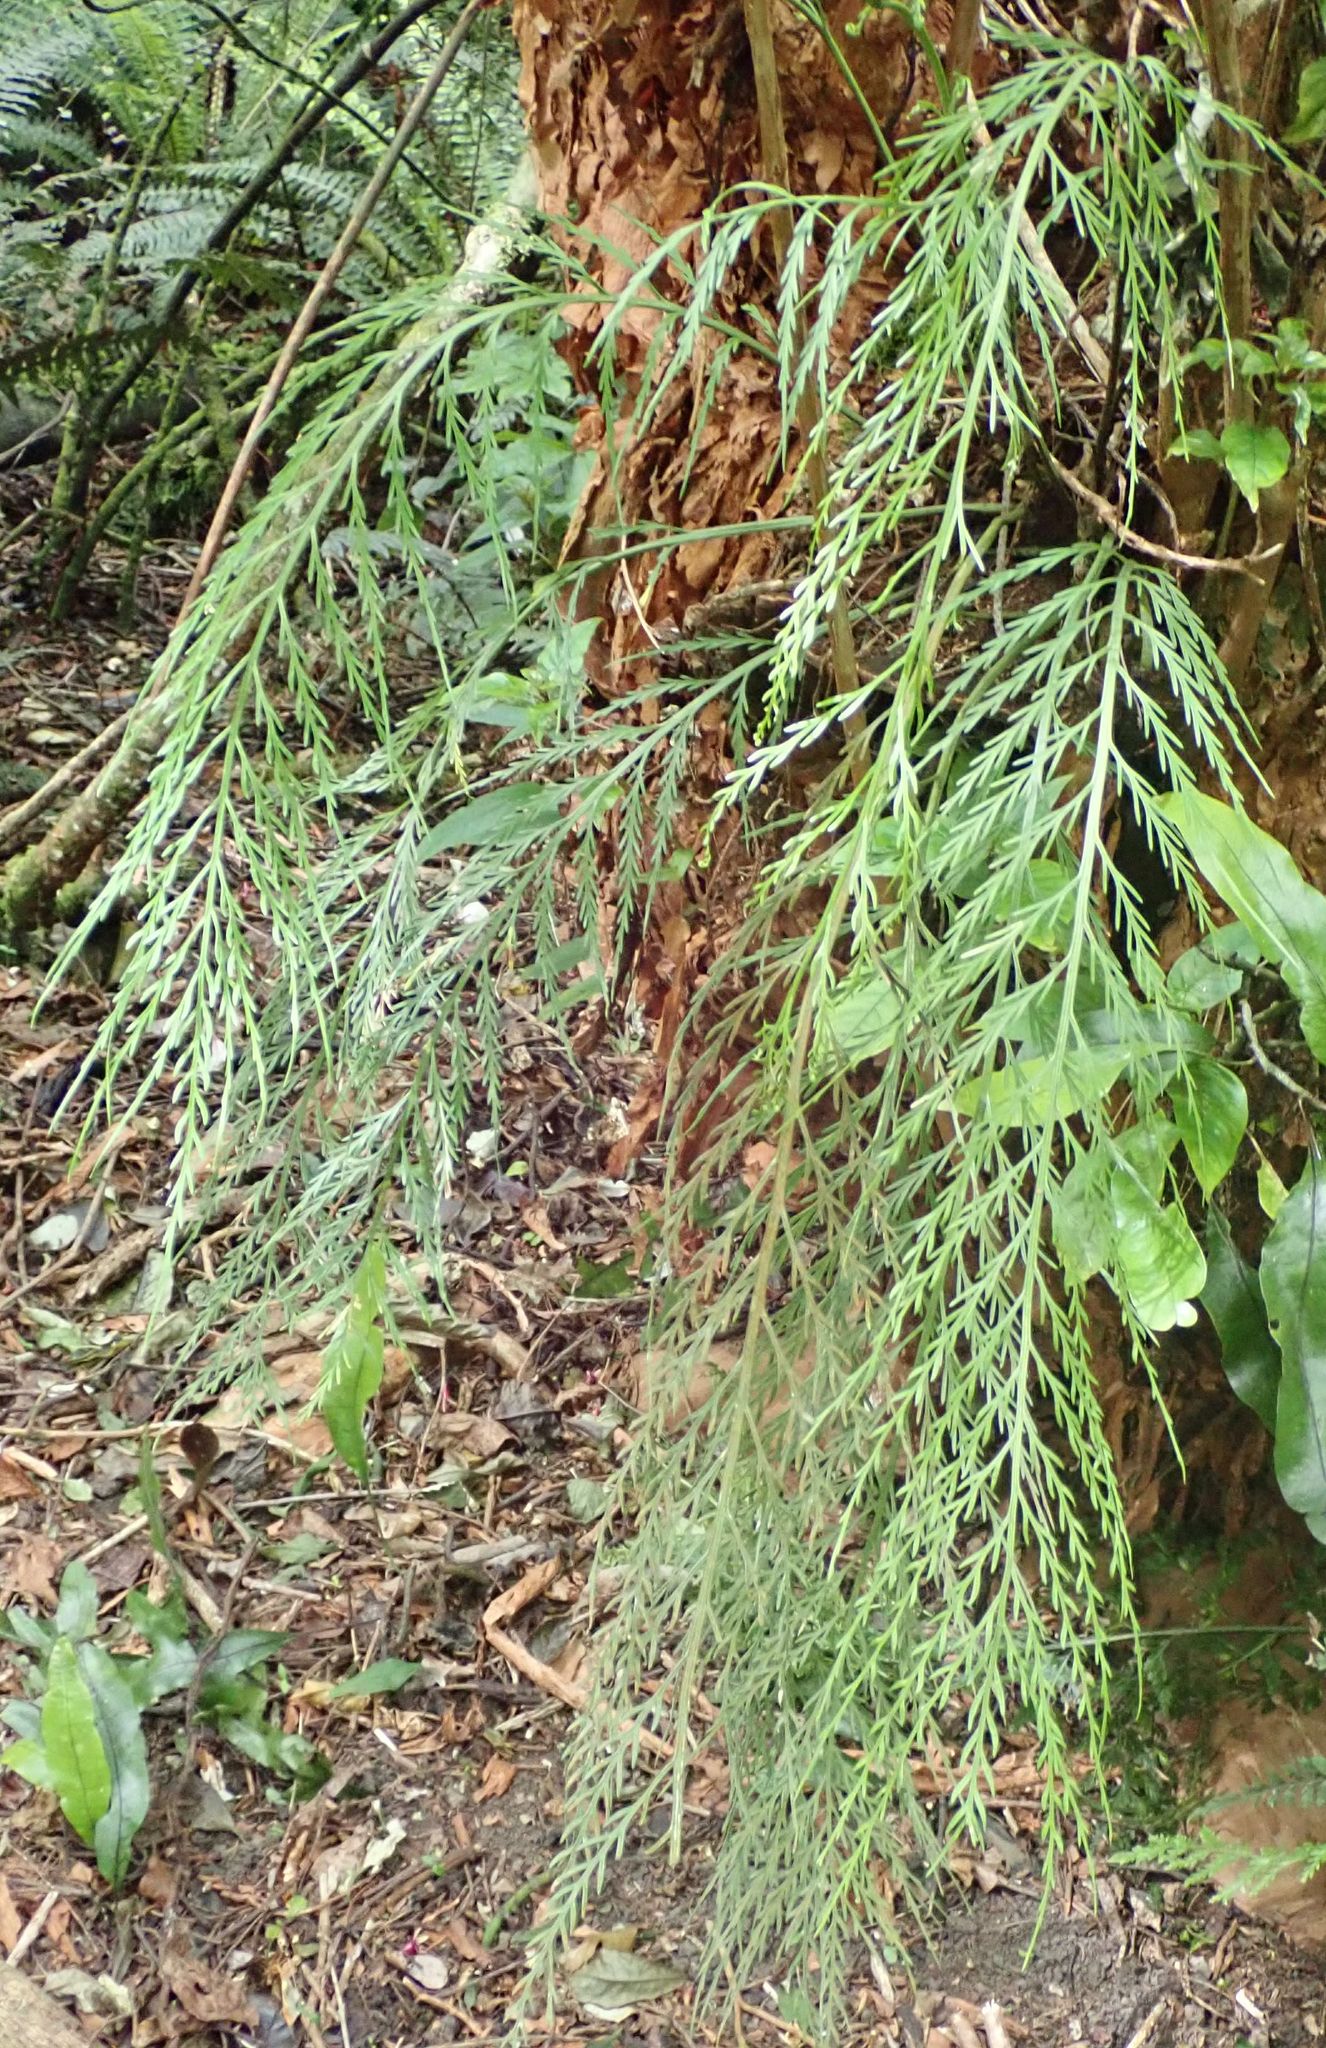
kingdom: Plantae
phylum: Tracheophyta
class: Polypodiopsida
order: Polypodiales
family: Aspleniaceae
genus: Asplenium
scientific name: Asplenium flaccidum
